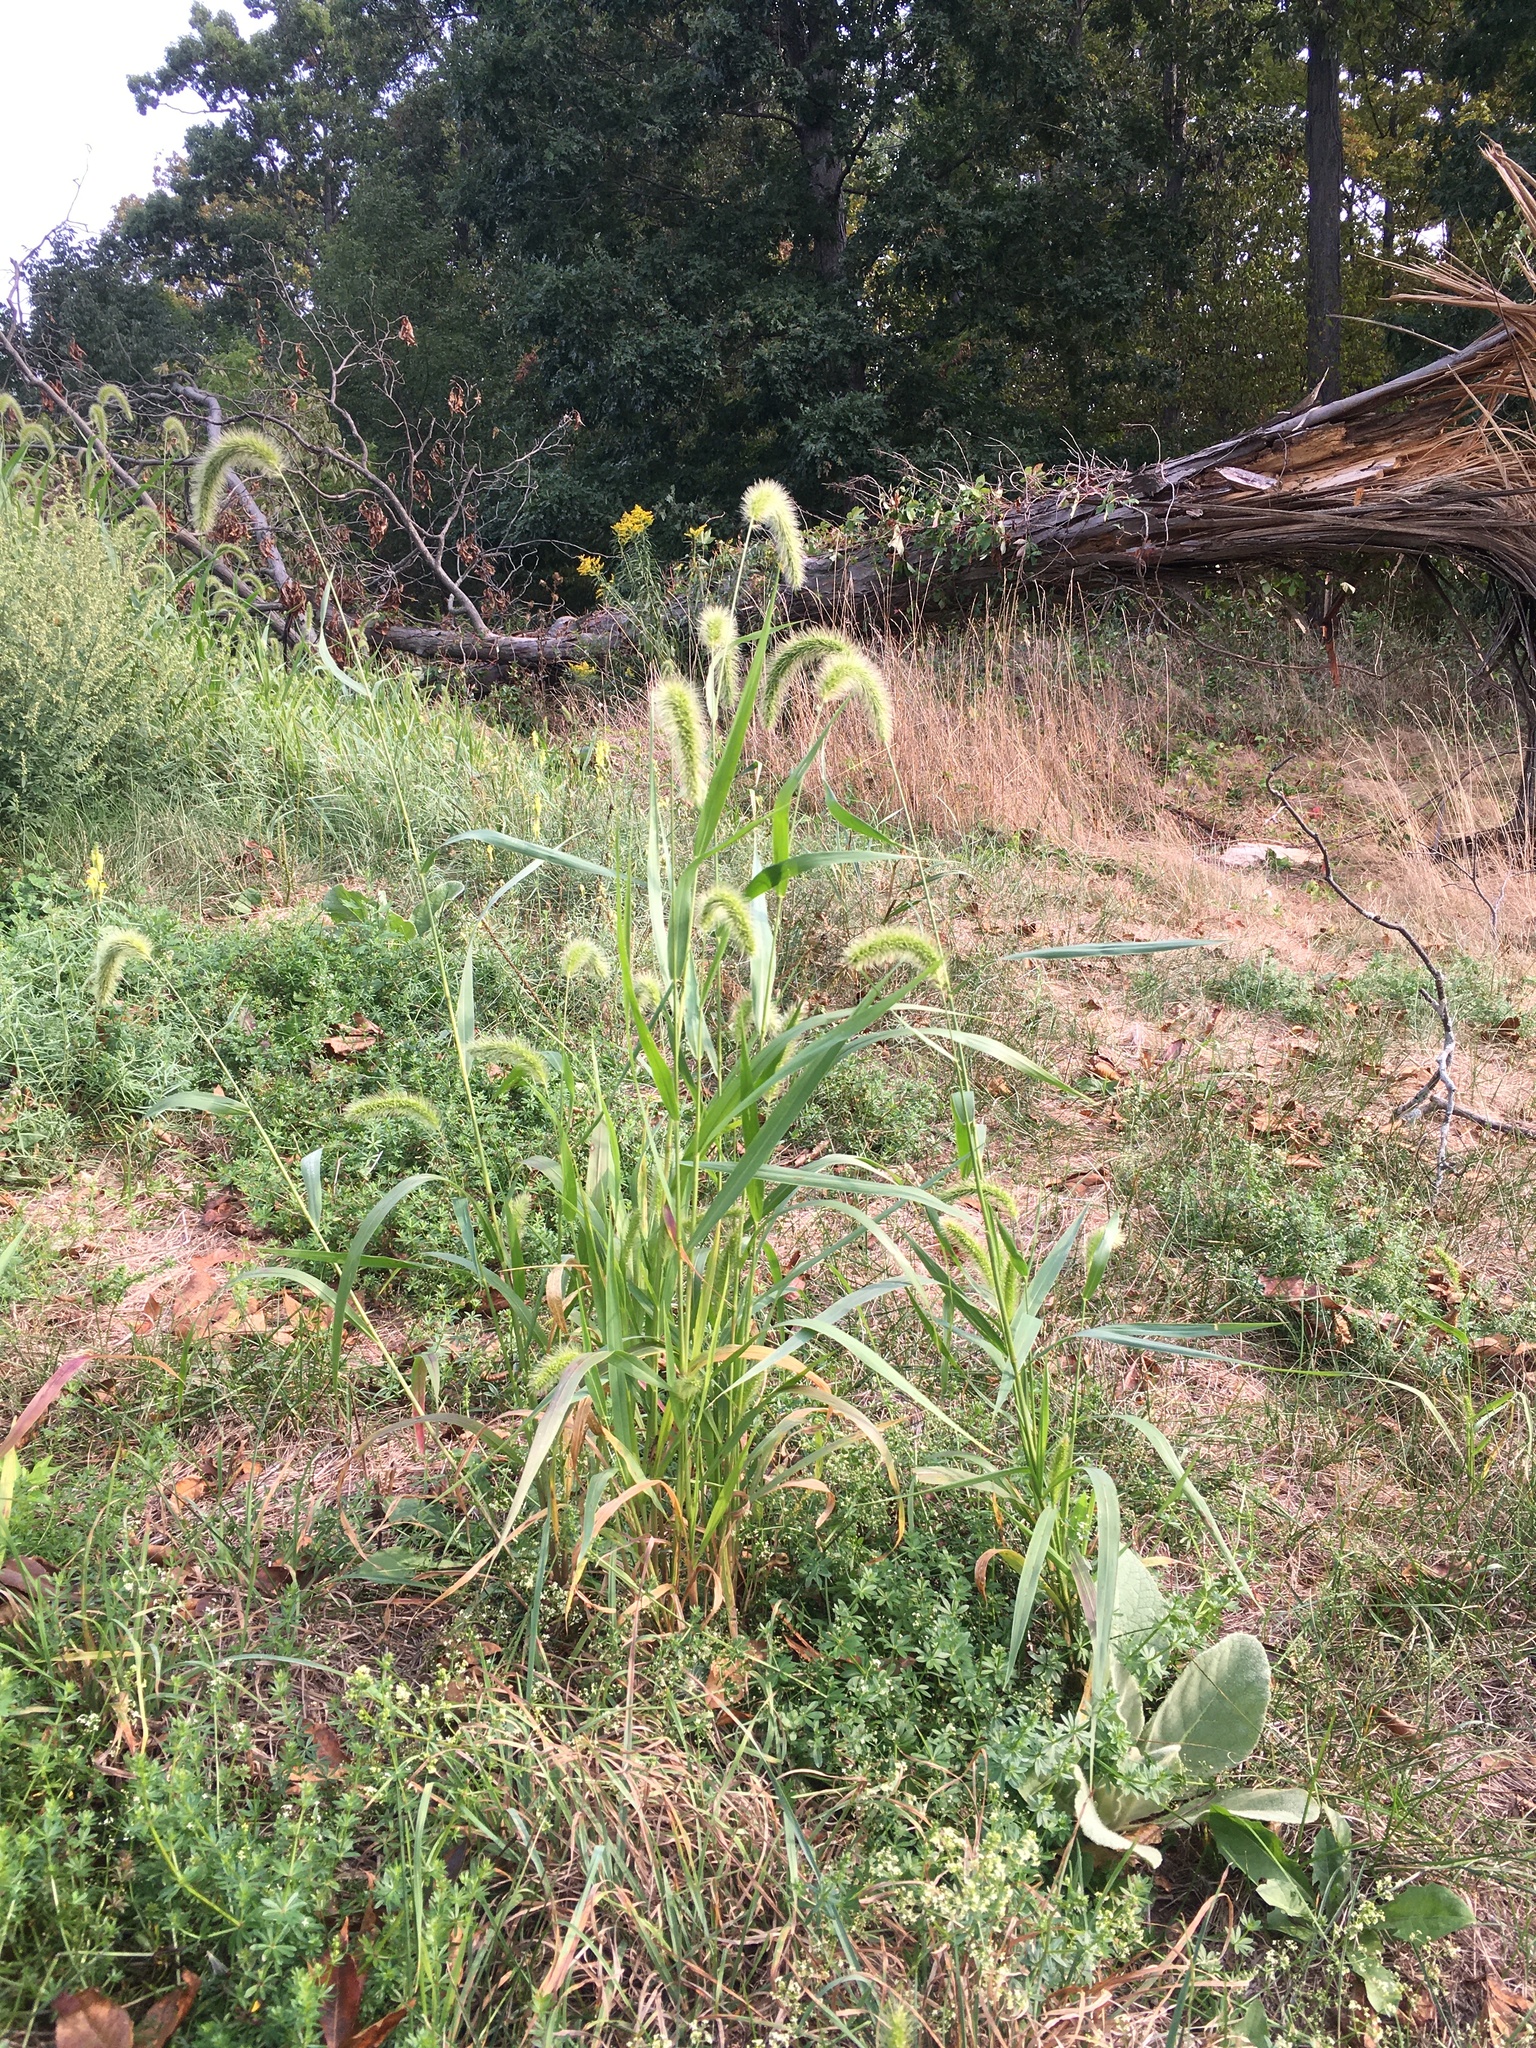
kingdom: Plantae
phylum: Tracheophyta
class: Liliopsida
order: Poales
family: Poaceae
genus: Setaria
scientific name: Setaria faberi
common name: Nodding bristle-grass
